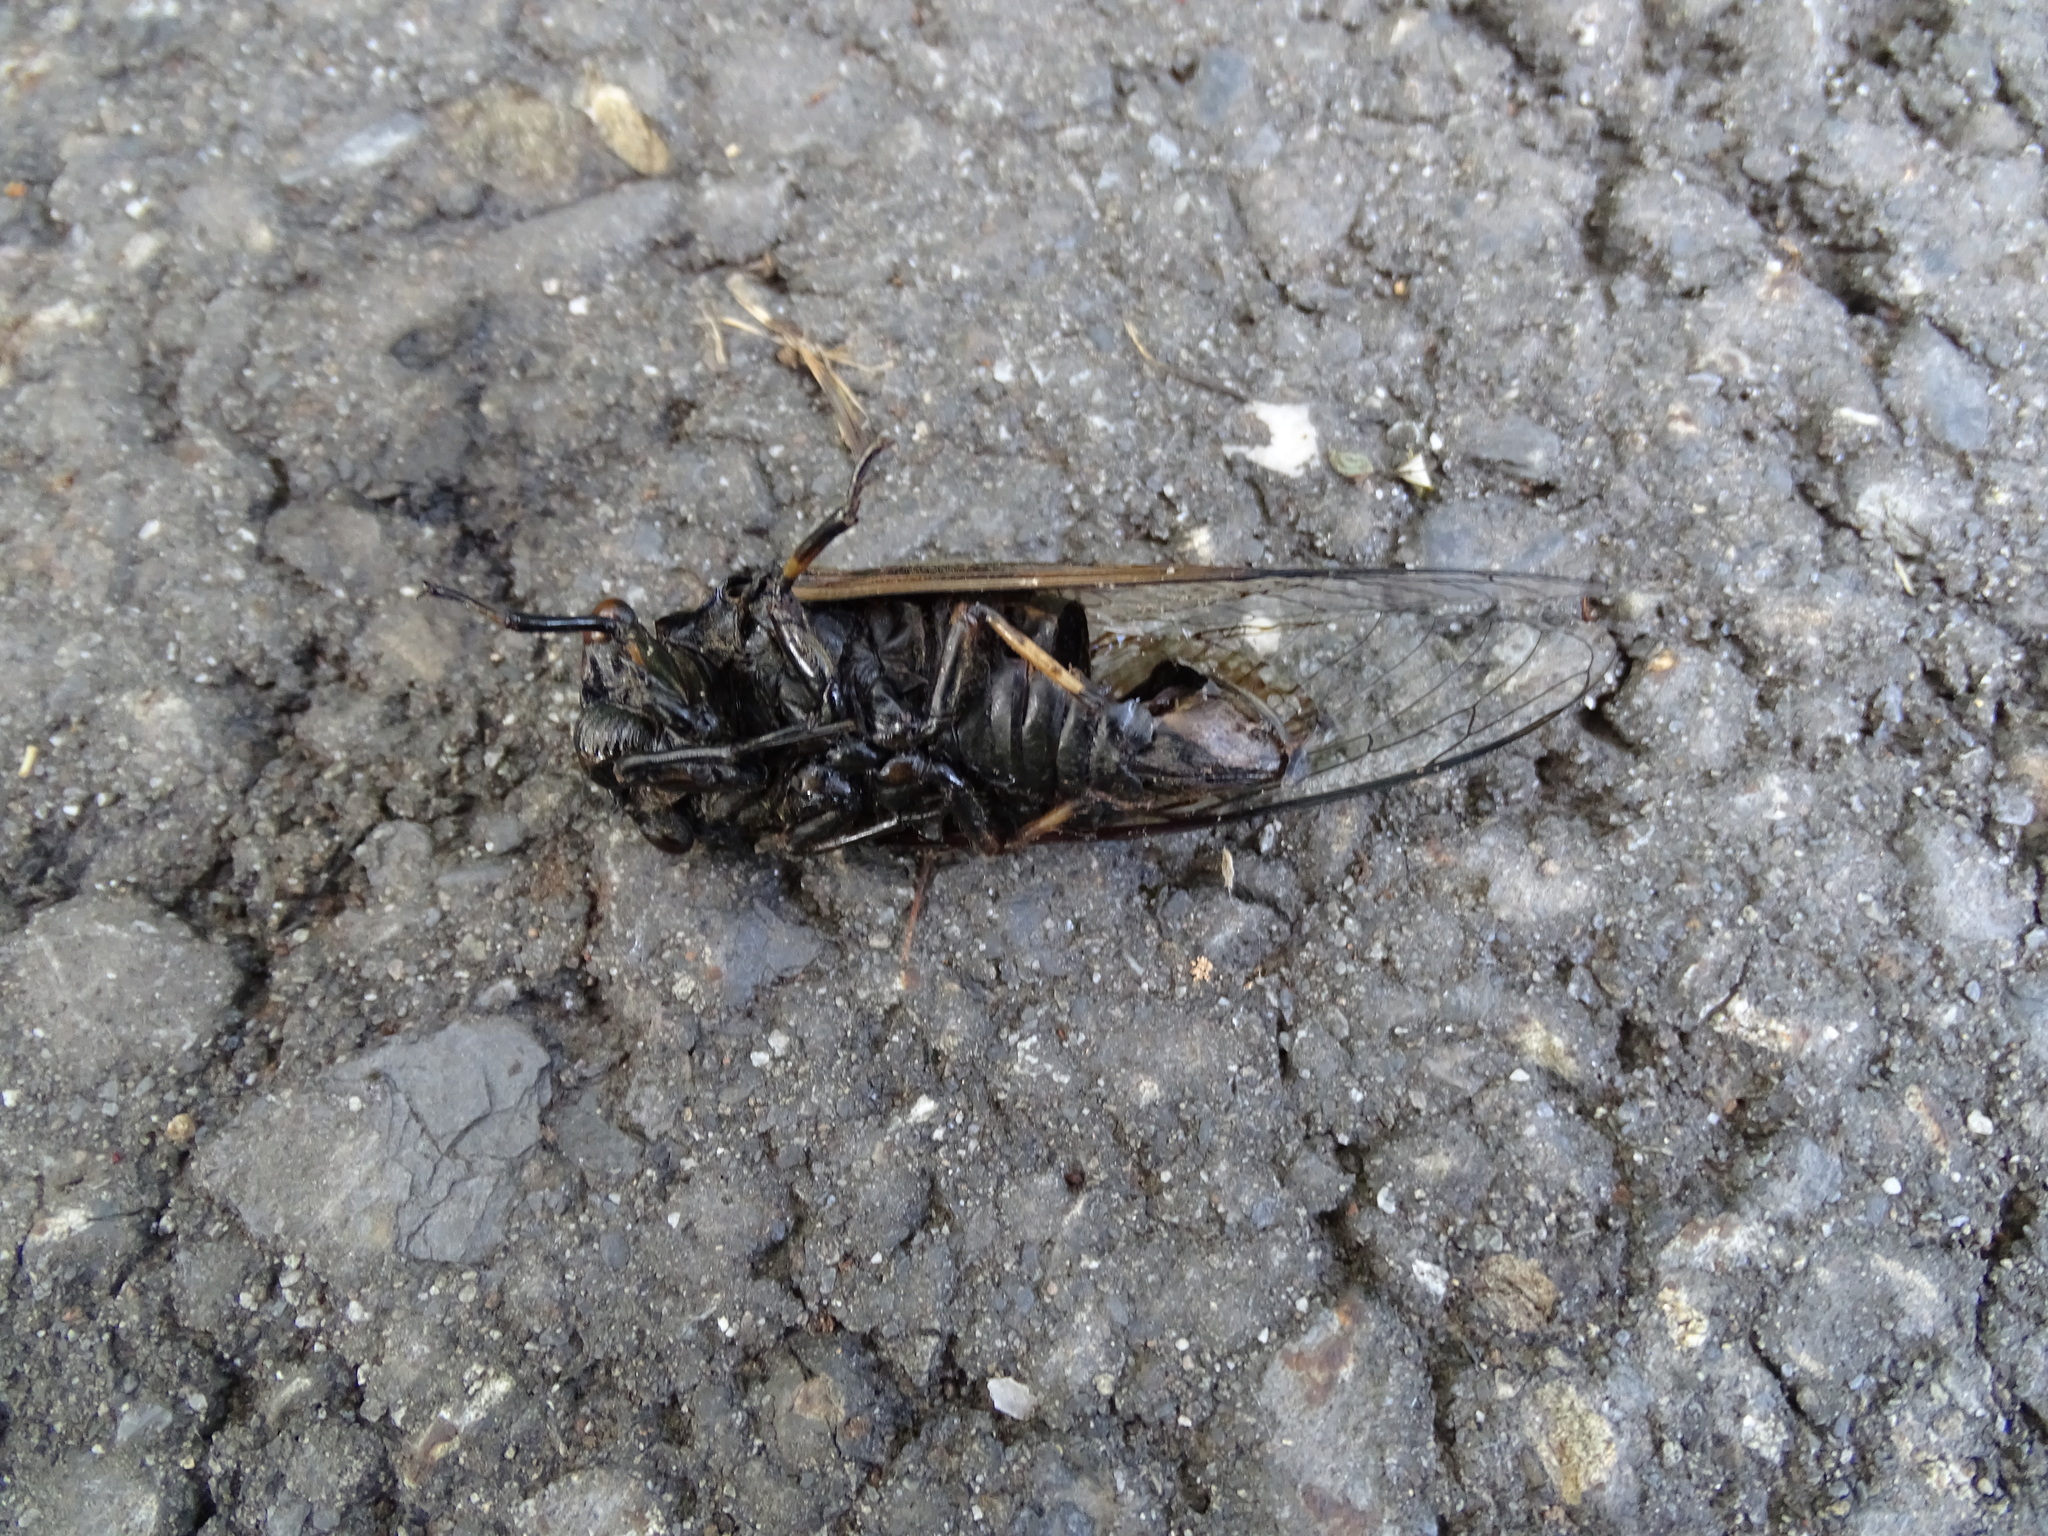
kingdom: Animalia
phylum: Arthropoda
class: Insecta
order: Hemiptera
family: Cicadidae
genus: Cryptotympana
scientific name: Cryptotympana atrata
